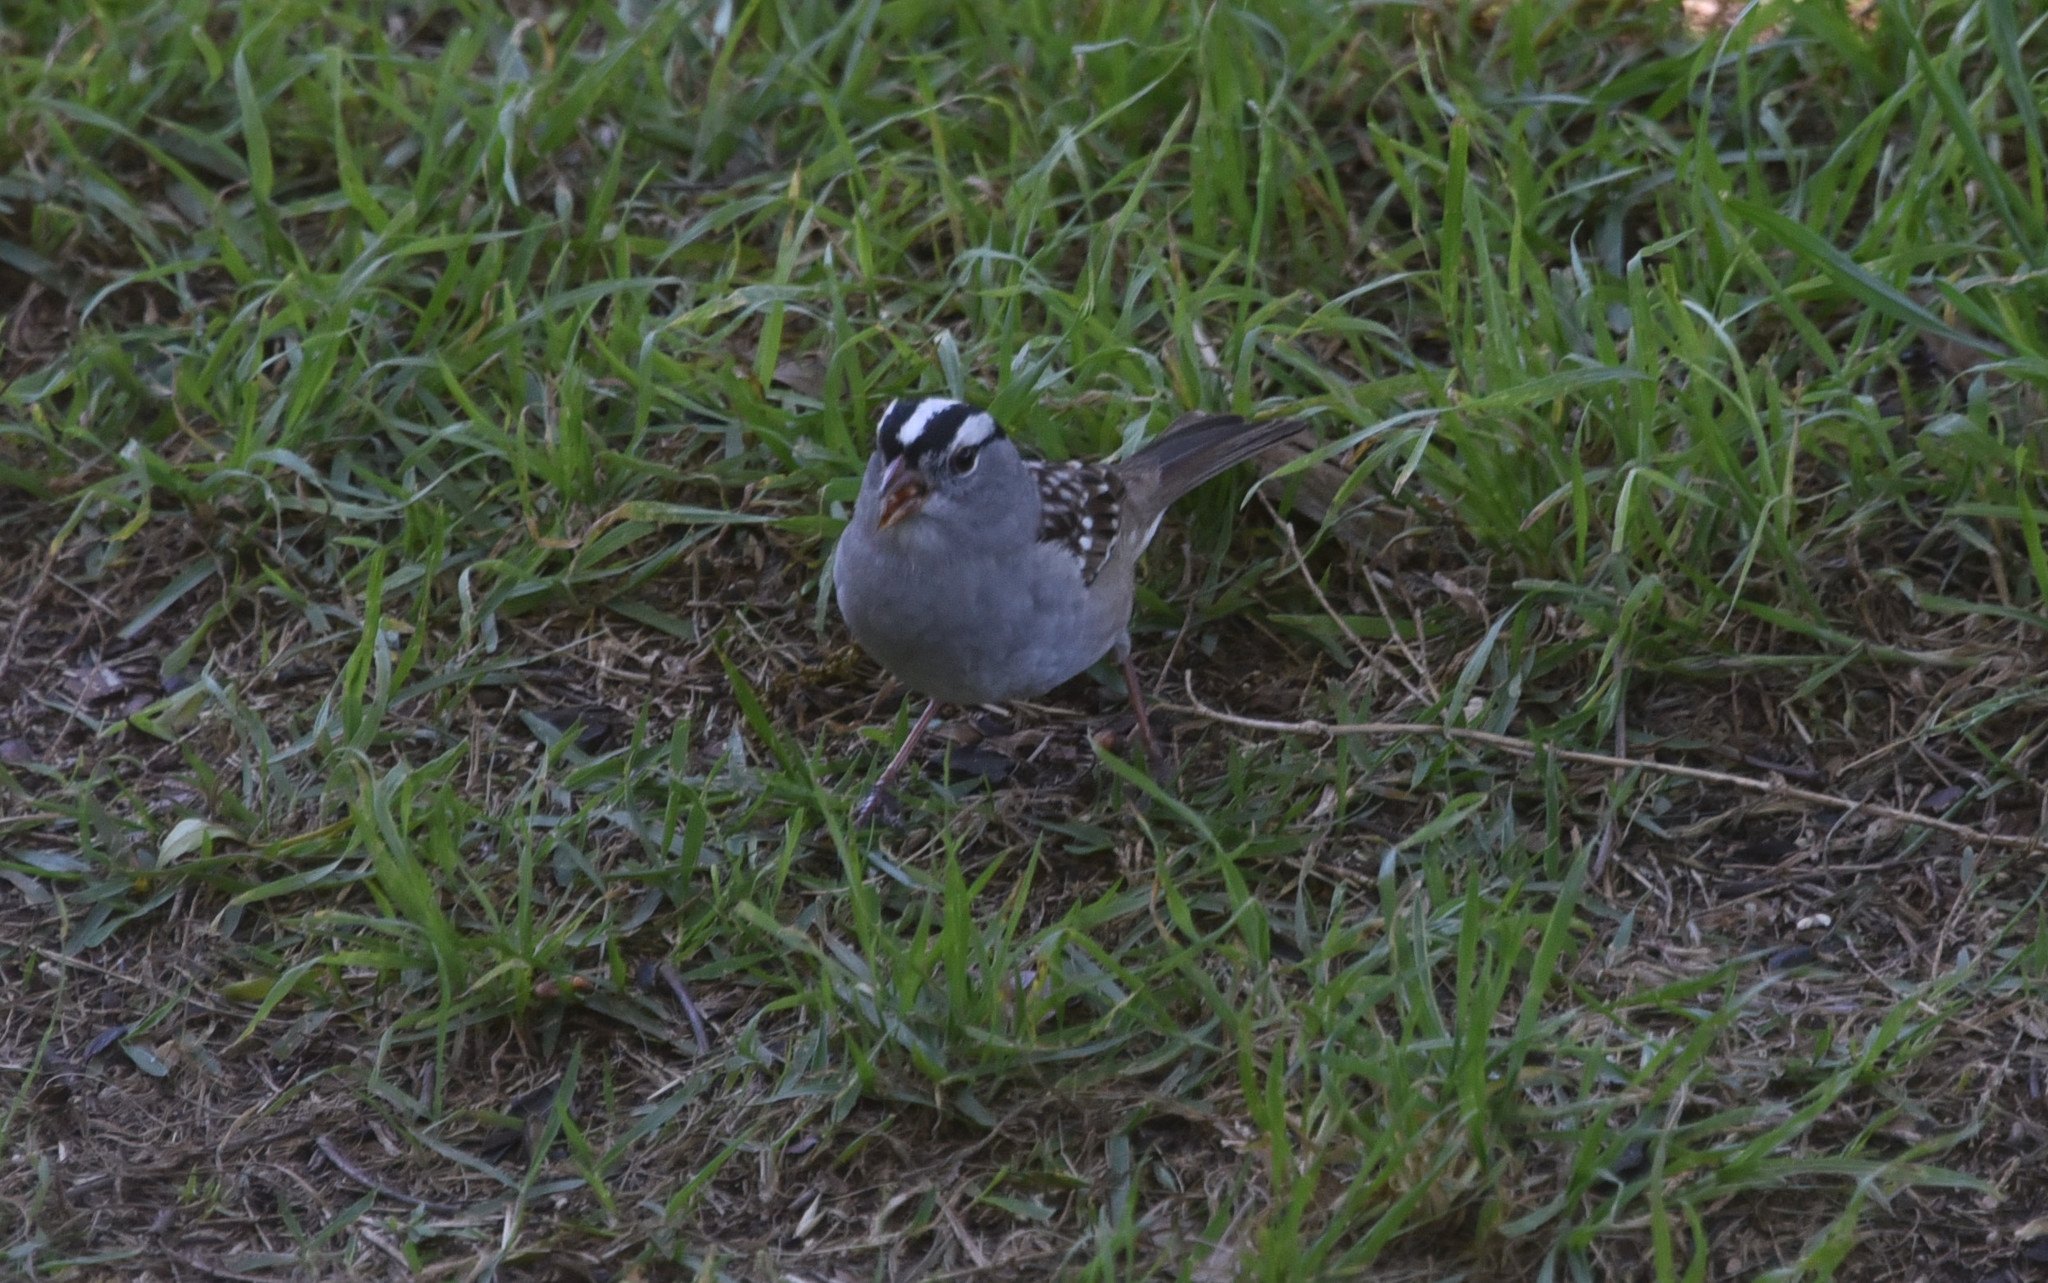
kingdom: Animalia
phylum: Chordata
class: Aves
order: Passeriformes
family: Passerellidae
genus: Zonotrichia
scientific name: Zonotrichia leucophrys
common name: White-crowned sparrow
